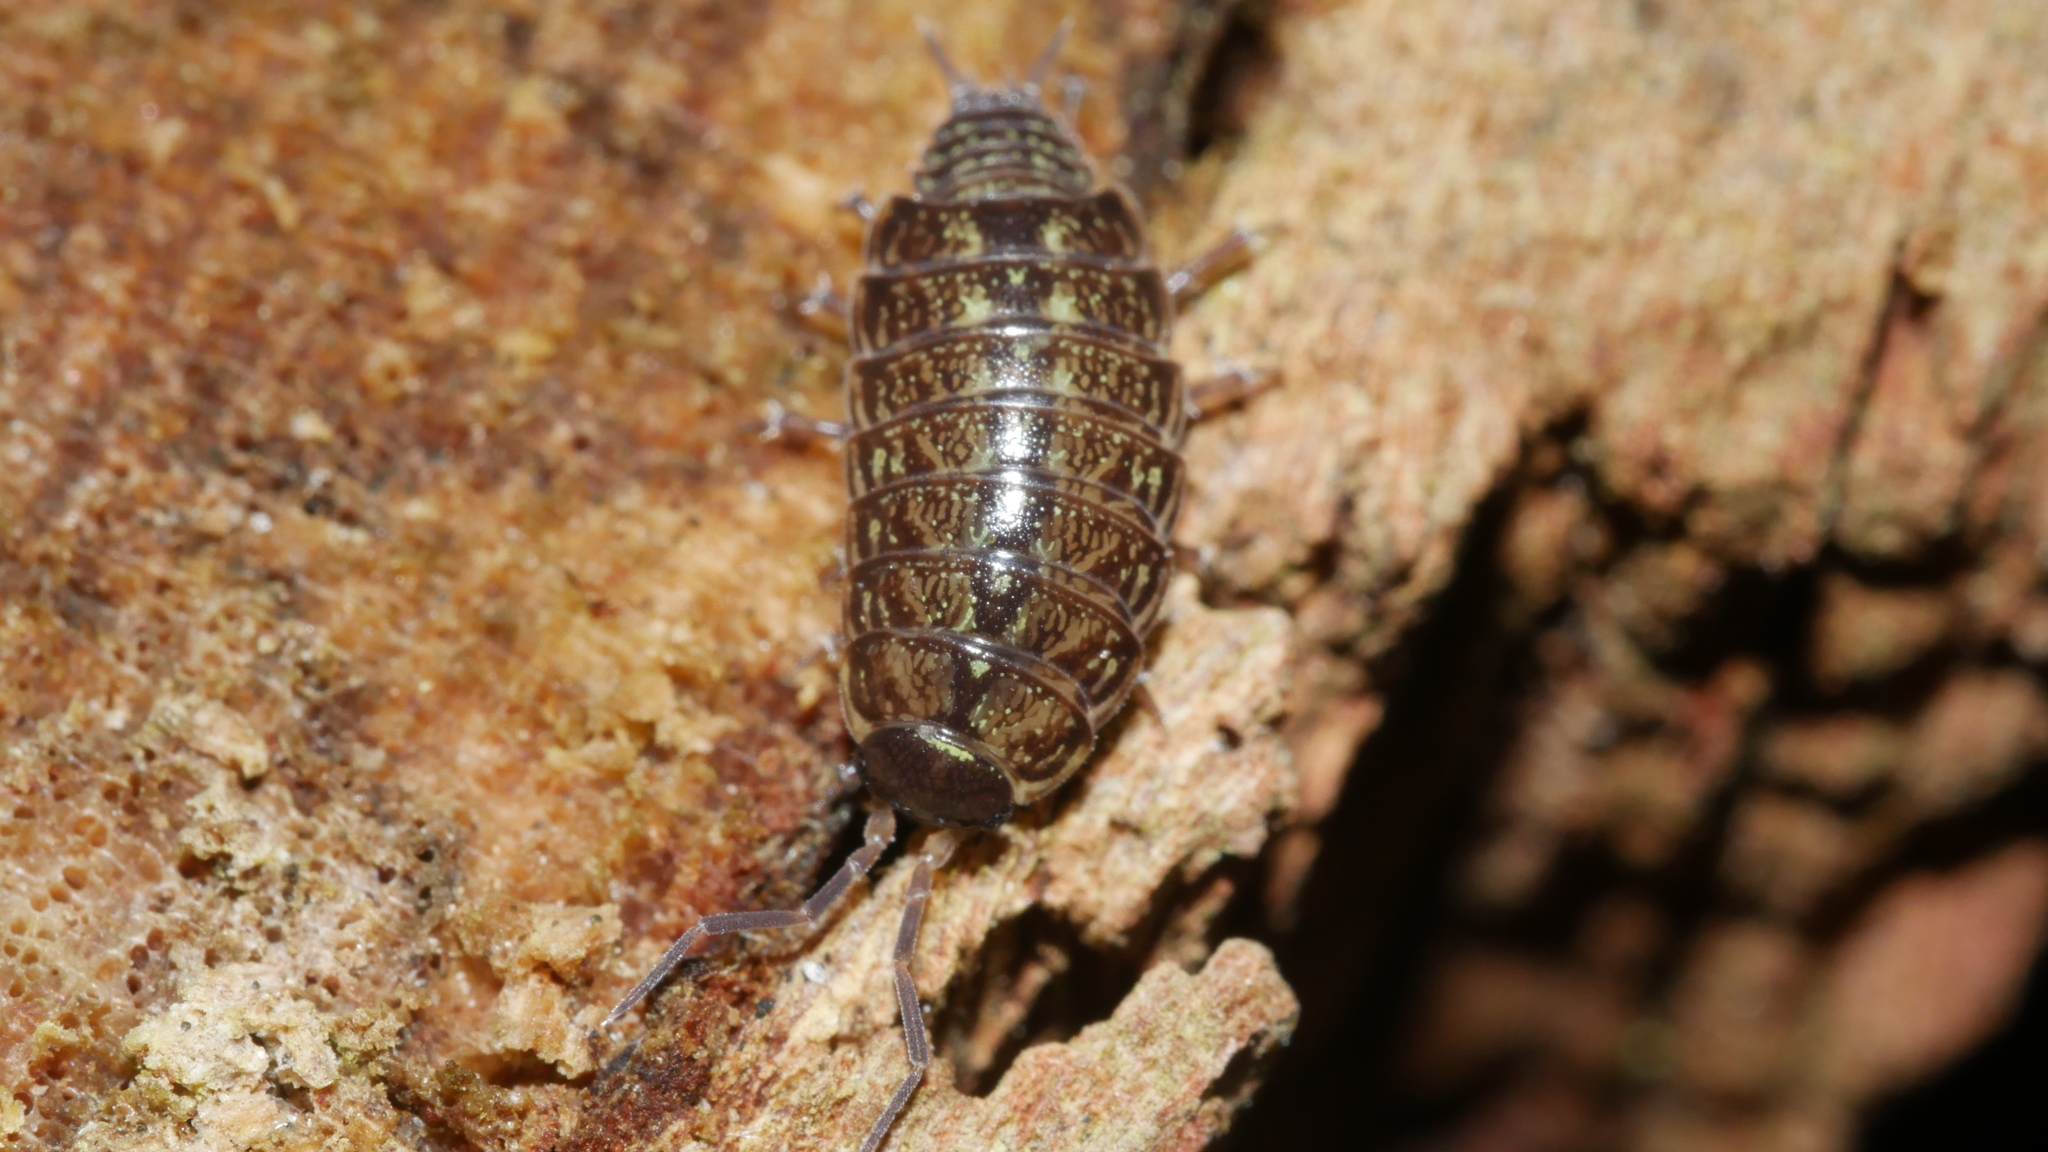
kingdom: Animalia
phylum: Arthropoda
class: Malacostraca
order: Isopoda
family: Philosciidae
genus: Philoscia
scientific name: Philoscia muscorum
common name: Common striped woodlouse
